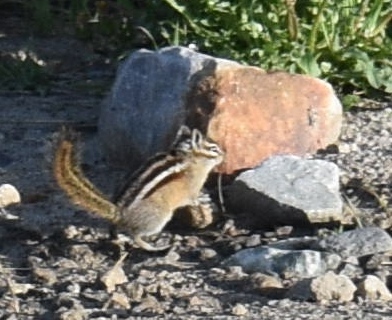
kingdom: Animalia
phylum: Chordata
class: Mammalia
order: Rodentia
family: Sciuridae
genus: Tamias
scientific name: Tamias minimus
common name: Least chipmunk
